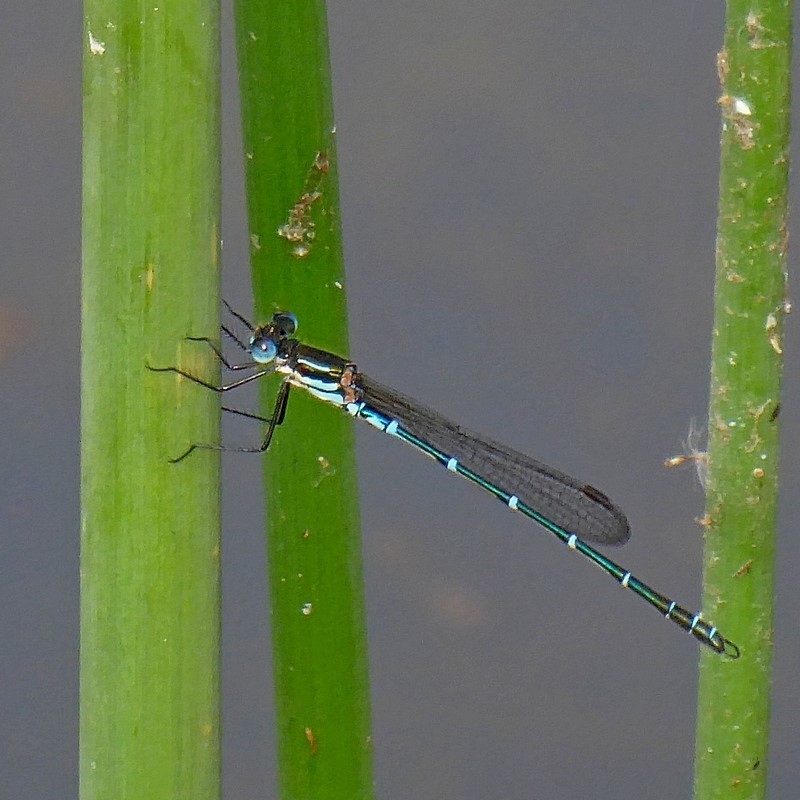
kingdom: Animalia
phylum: Arthropoda
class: Insecta
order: Odonata
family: Lestidae
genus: Austrolestes
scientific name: Austrolestes psyche
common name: Cup ringtail
